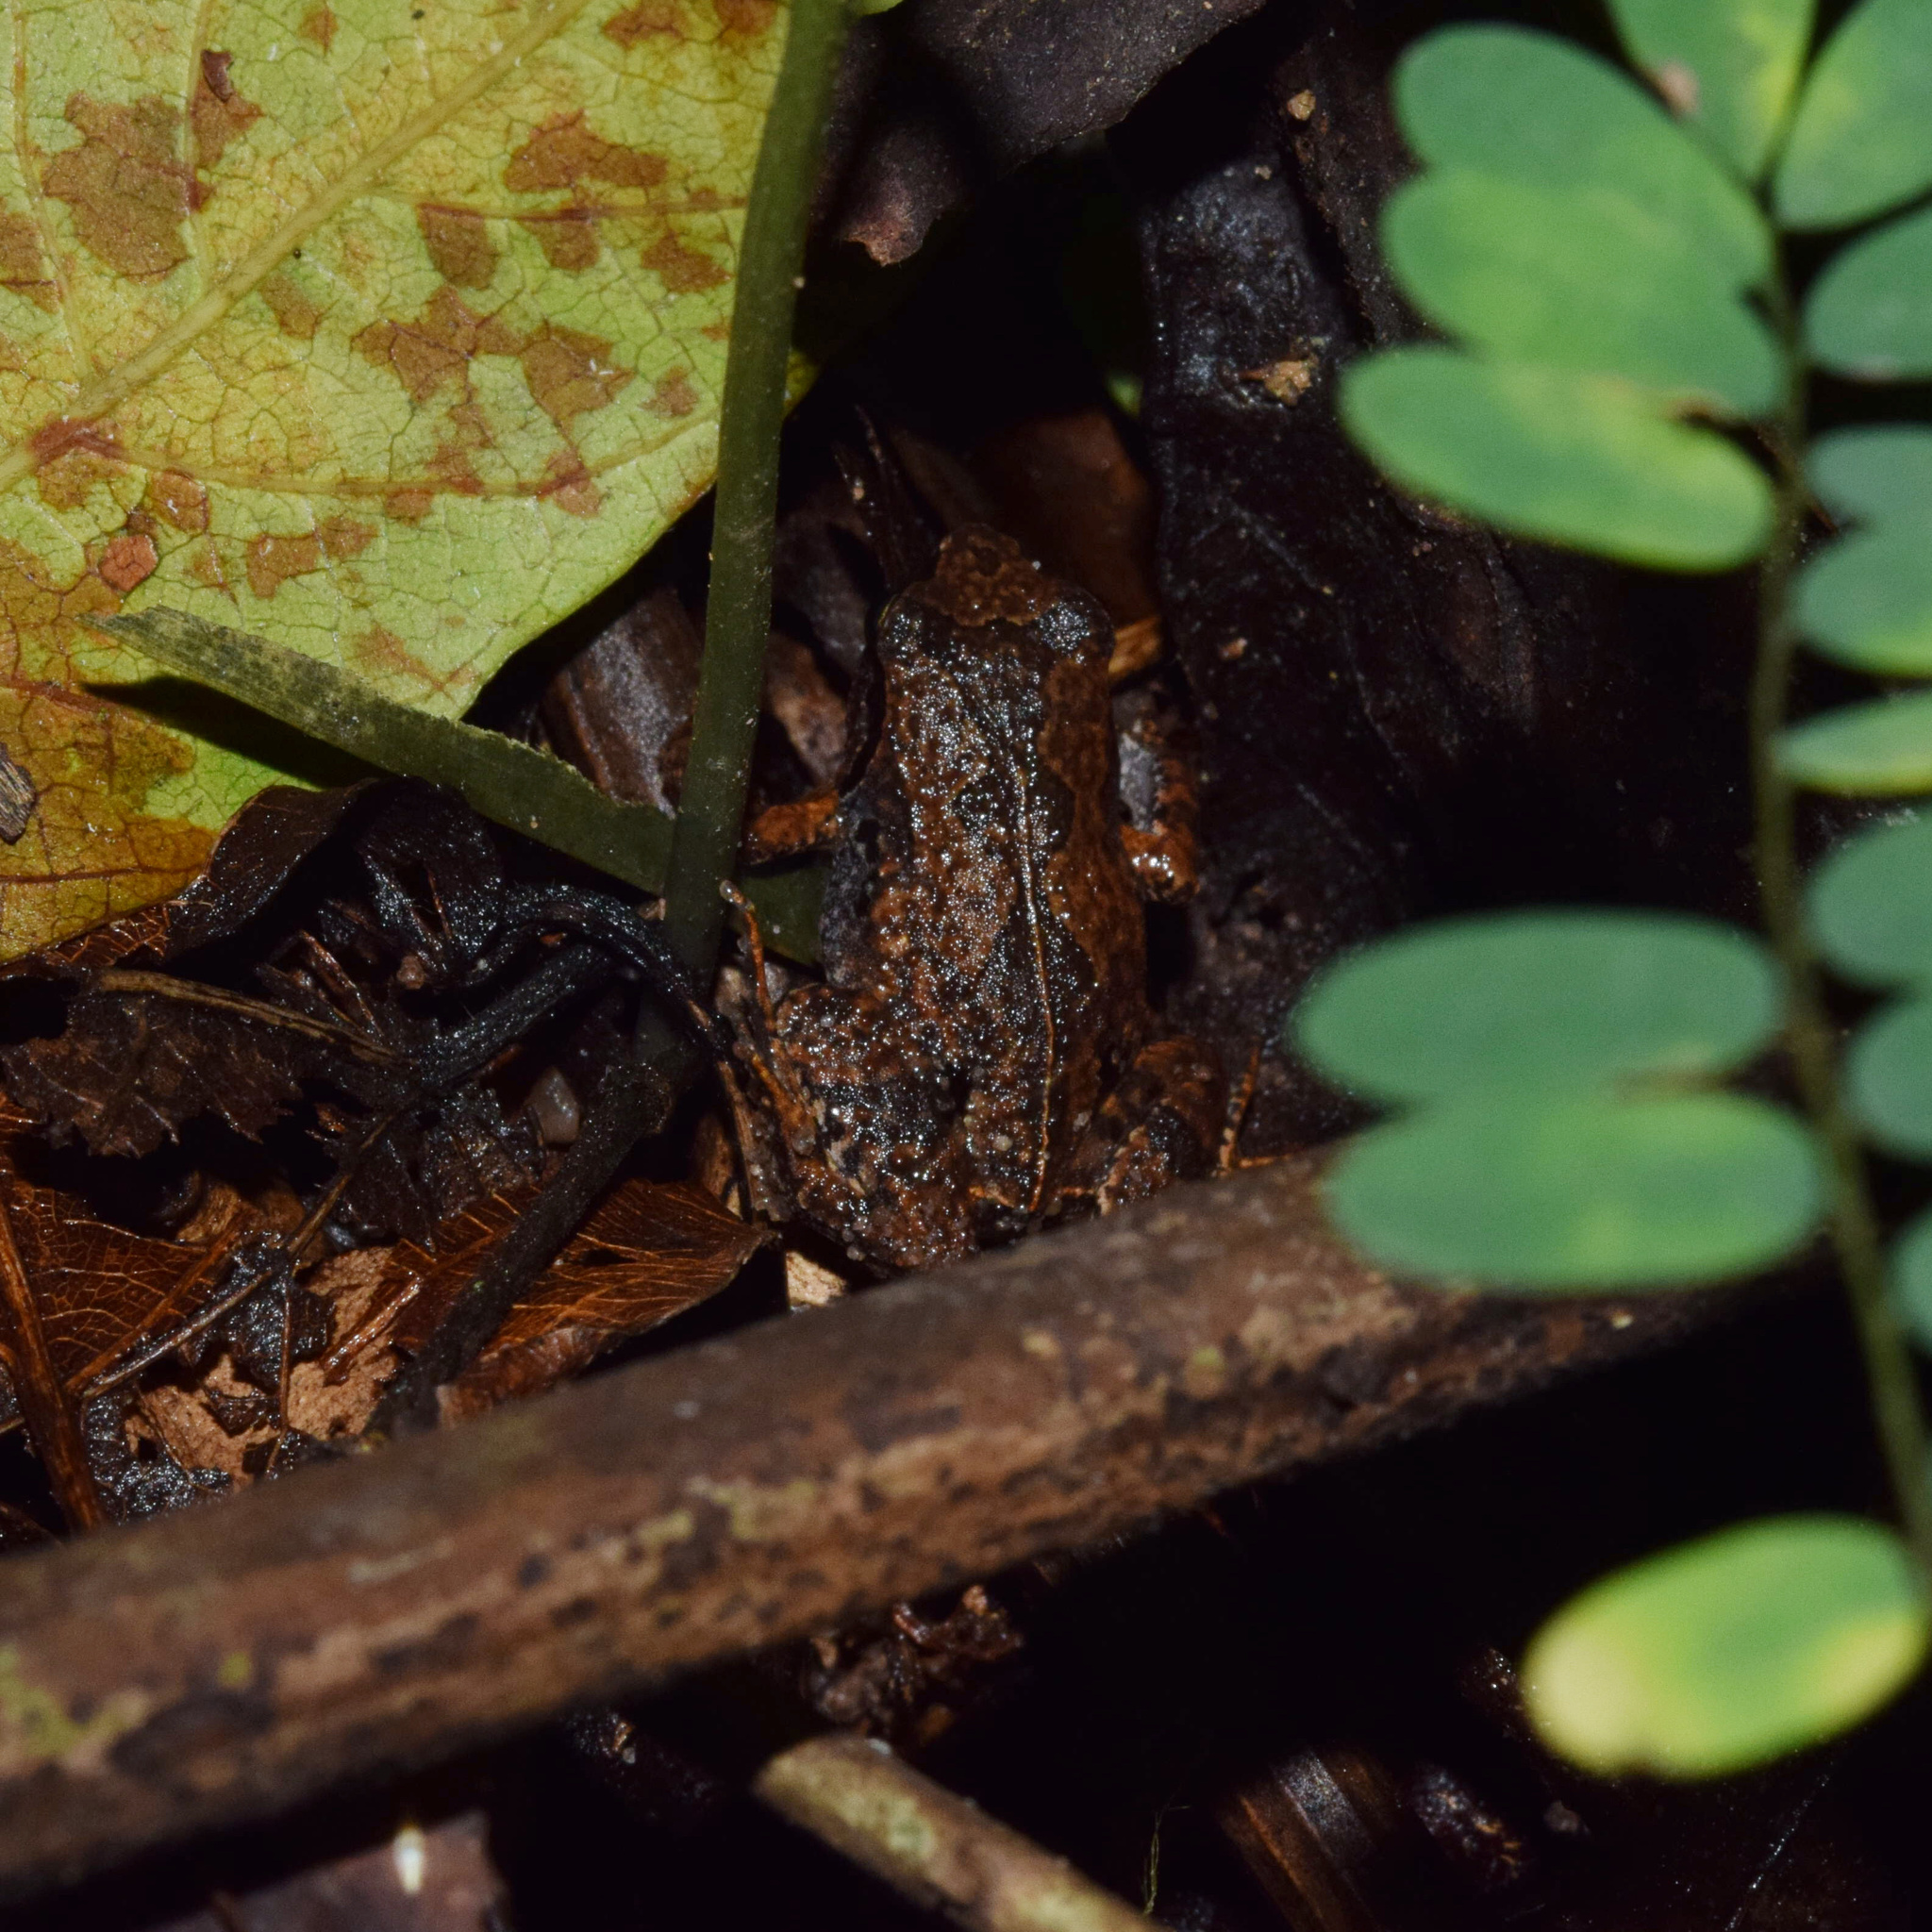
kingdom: Animalia
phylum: Chordata
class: Amphibia
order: Anura
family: Arthroleptidae
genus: Arthroleptis
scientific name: Arthroleptis wahlbergii
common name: Bush squeaker
